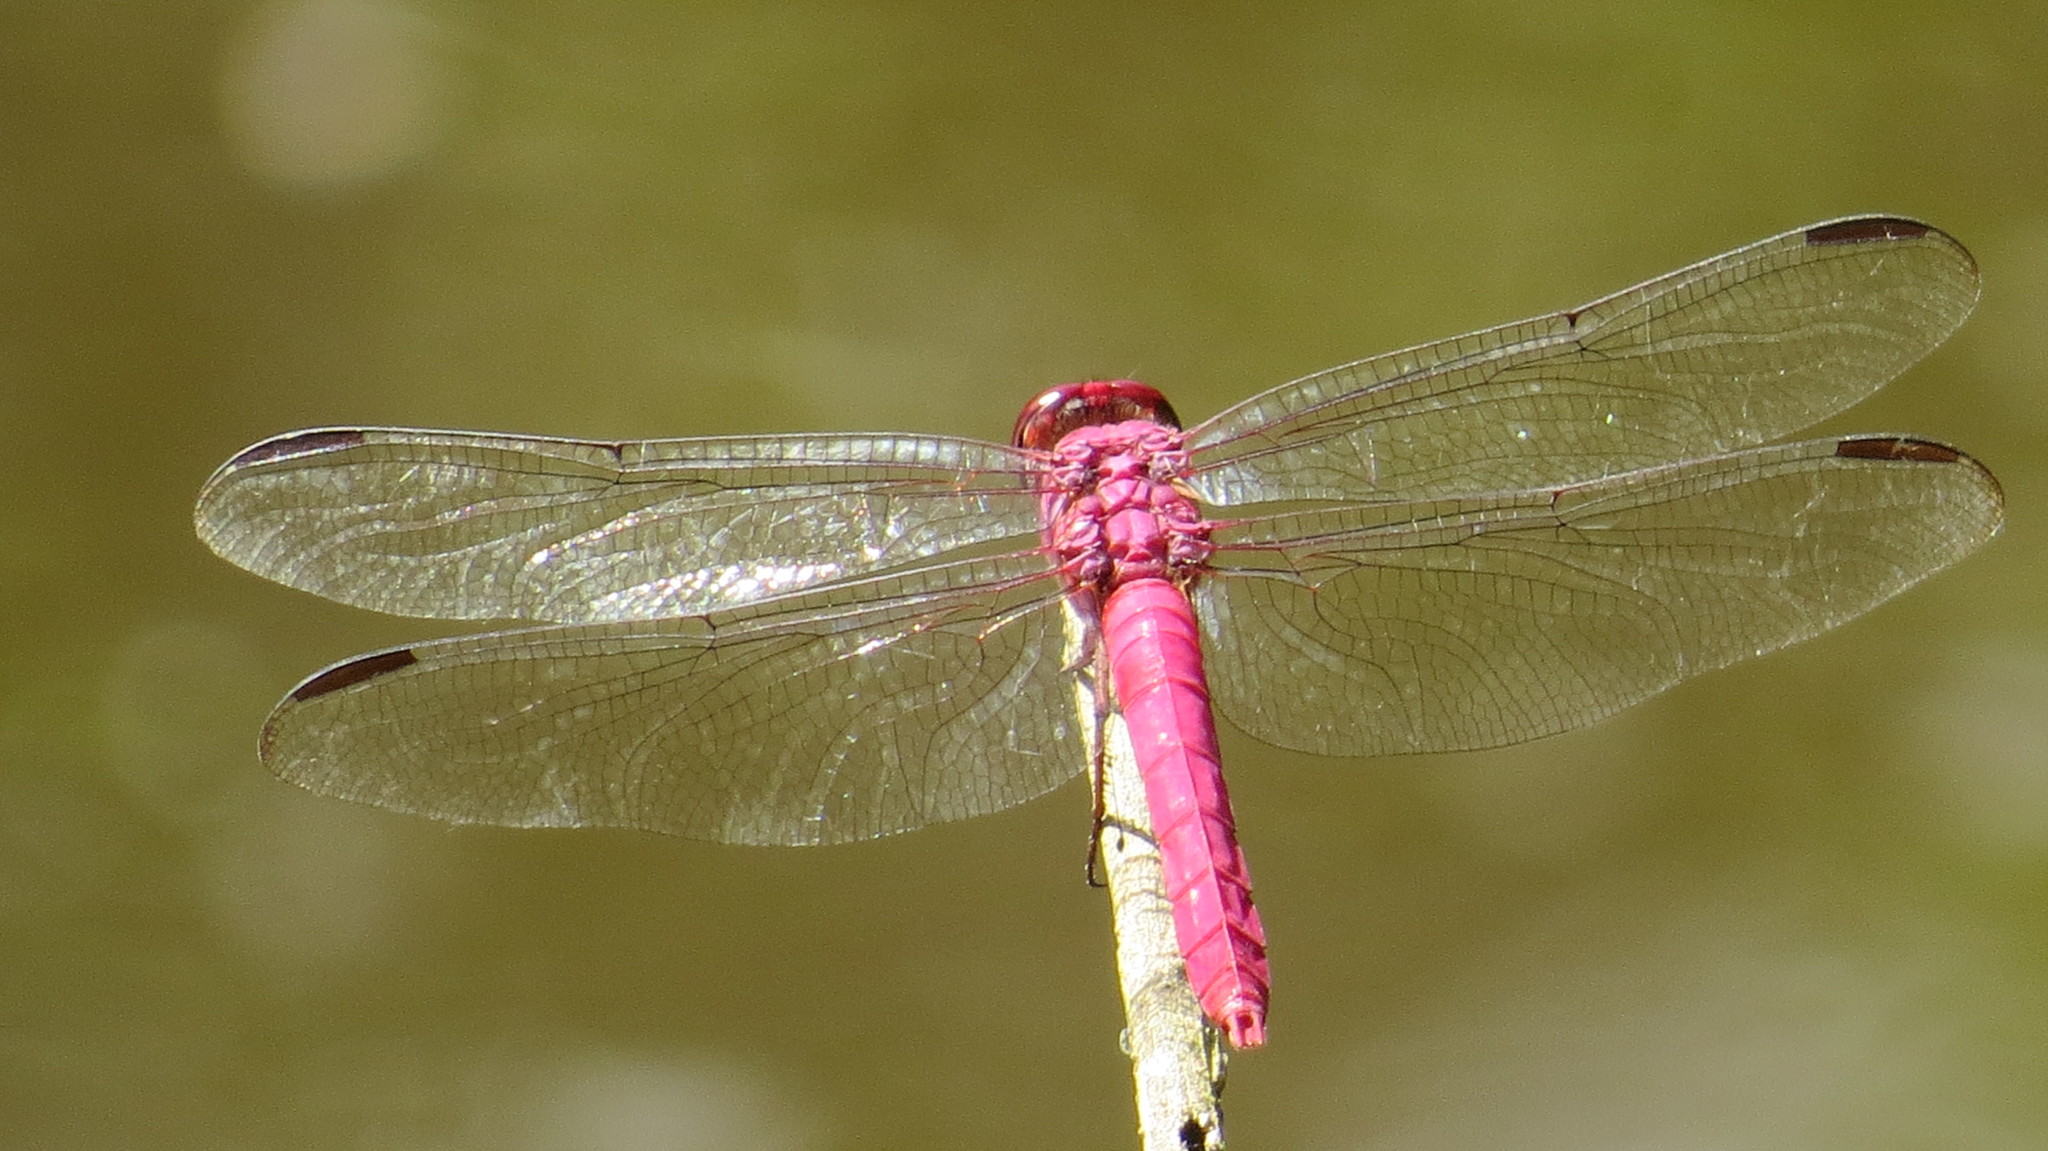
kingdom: Animalia
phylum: Arthropoda
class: Insecta
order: Odonata
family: Libellulidae
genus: Orthemis
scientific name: Orthemis discolor
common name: Carmine skimmer
